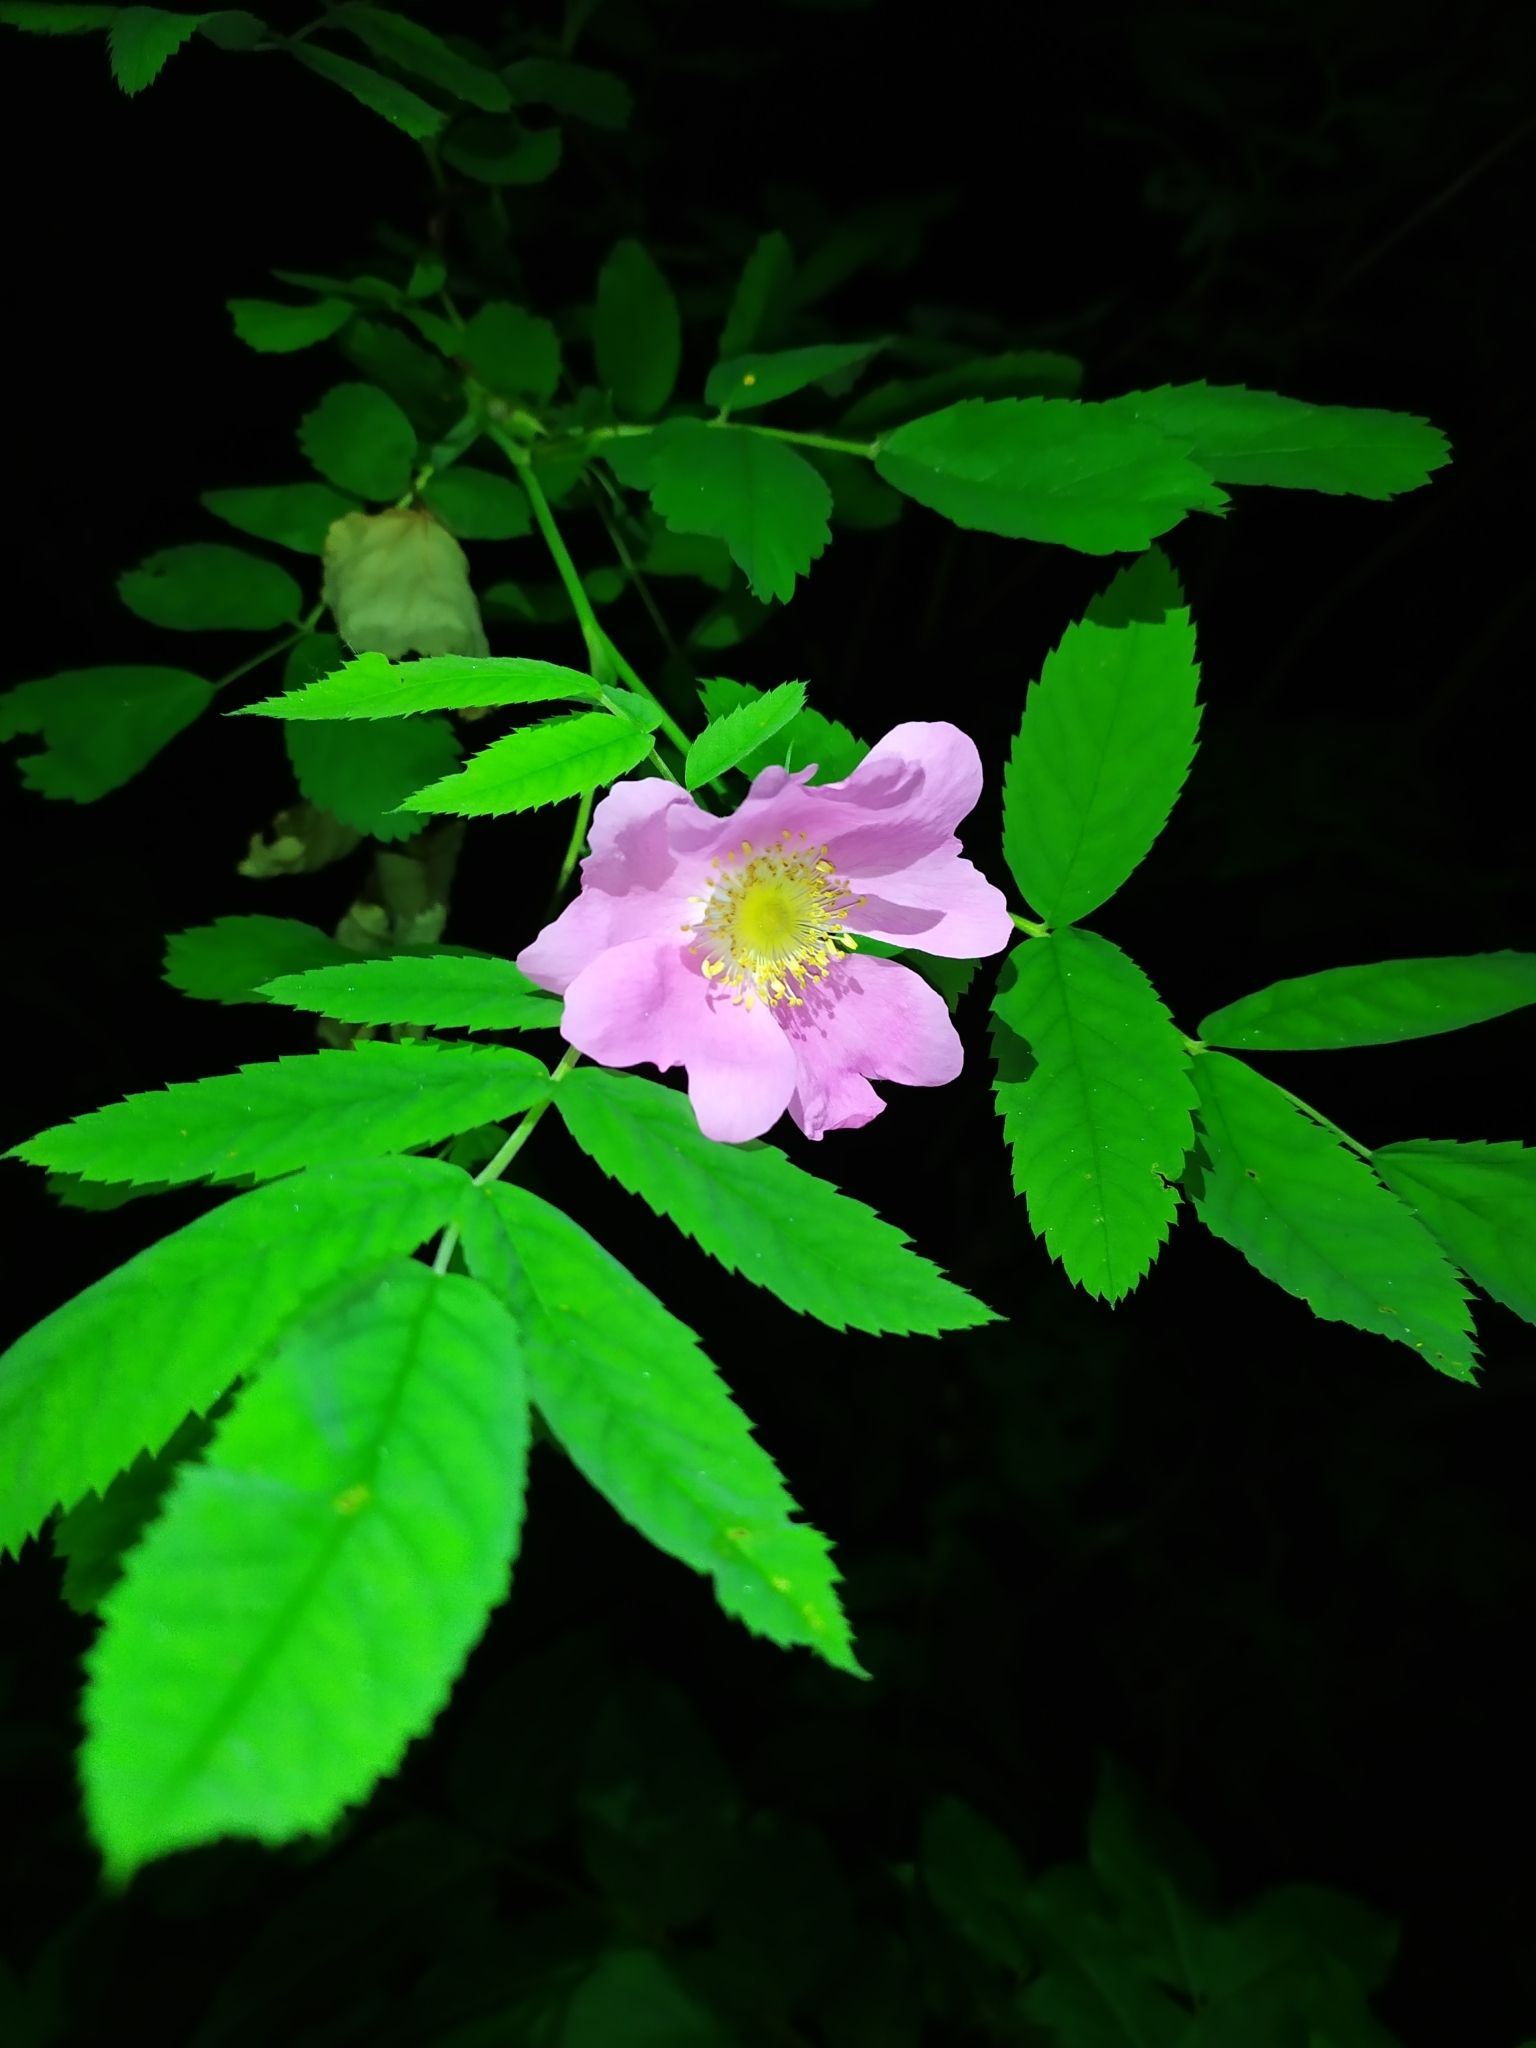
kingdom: Plantae
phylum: Tracheophyta
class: Magnoliopsida
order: Rosales
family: Rosaceae
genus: Rosa
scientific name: Rosa
